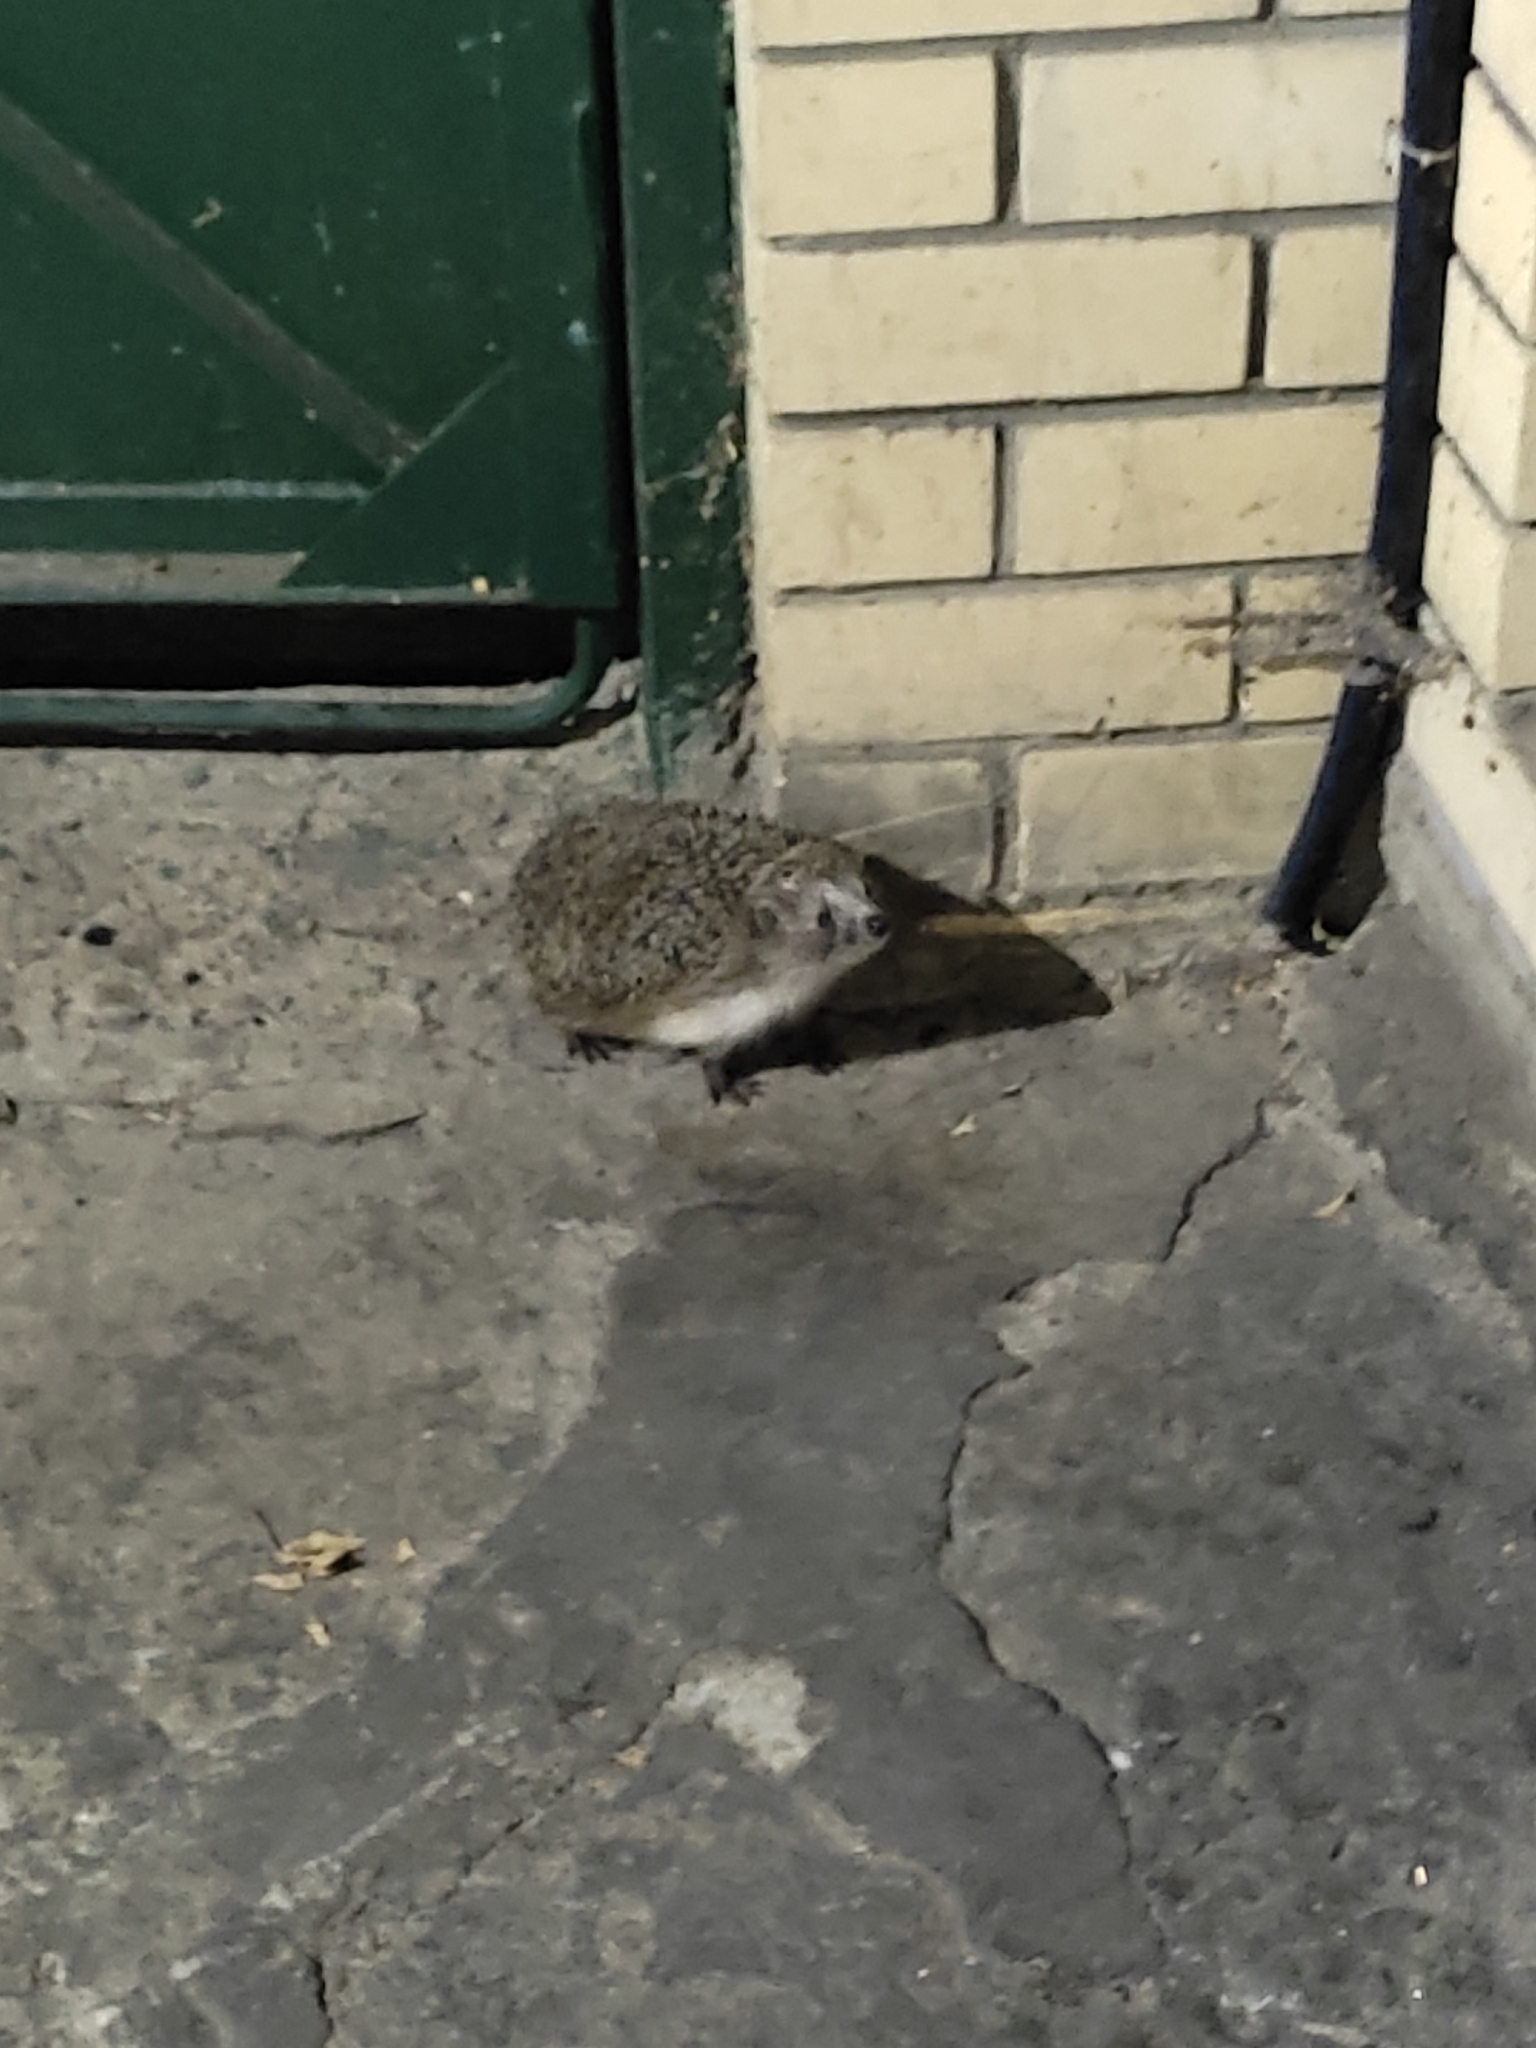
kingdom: Animalia
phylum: Chordata
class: Mammalia
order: Erinaceomorpha
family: Erinaceidae
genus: Erinaceus
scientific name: Erinaceus roumanicus
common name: Northern white-breasted hedgehog
